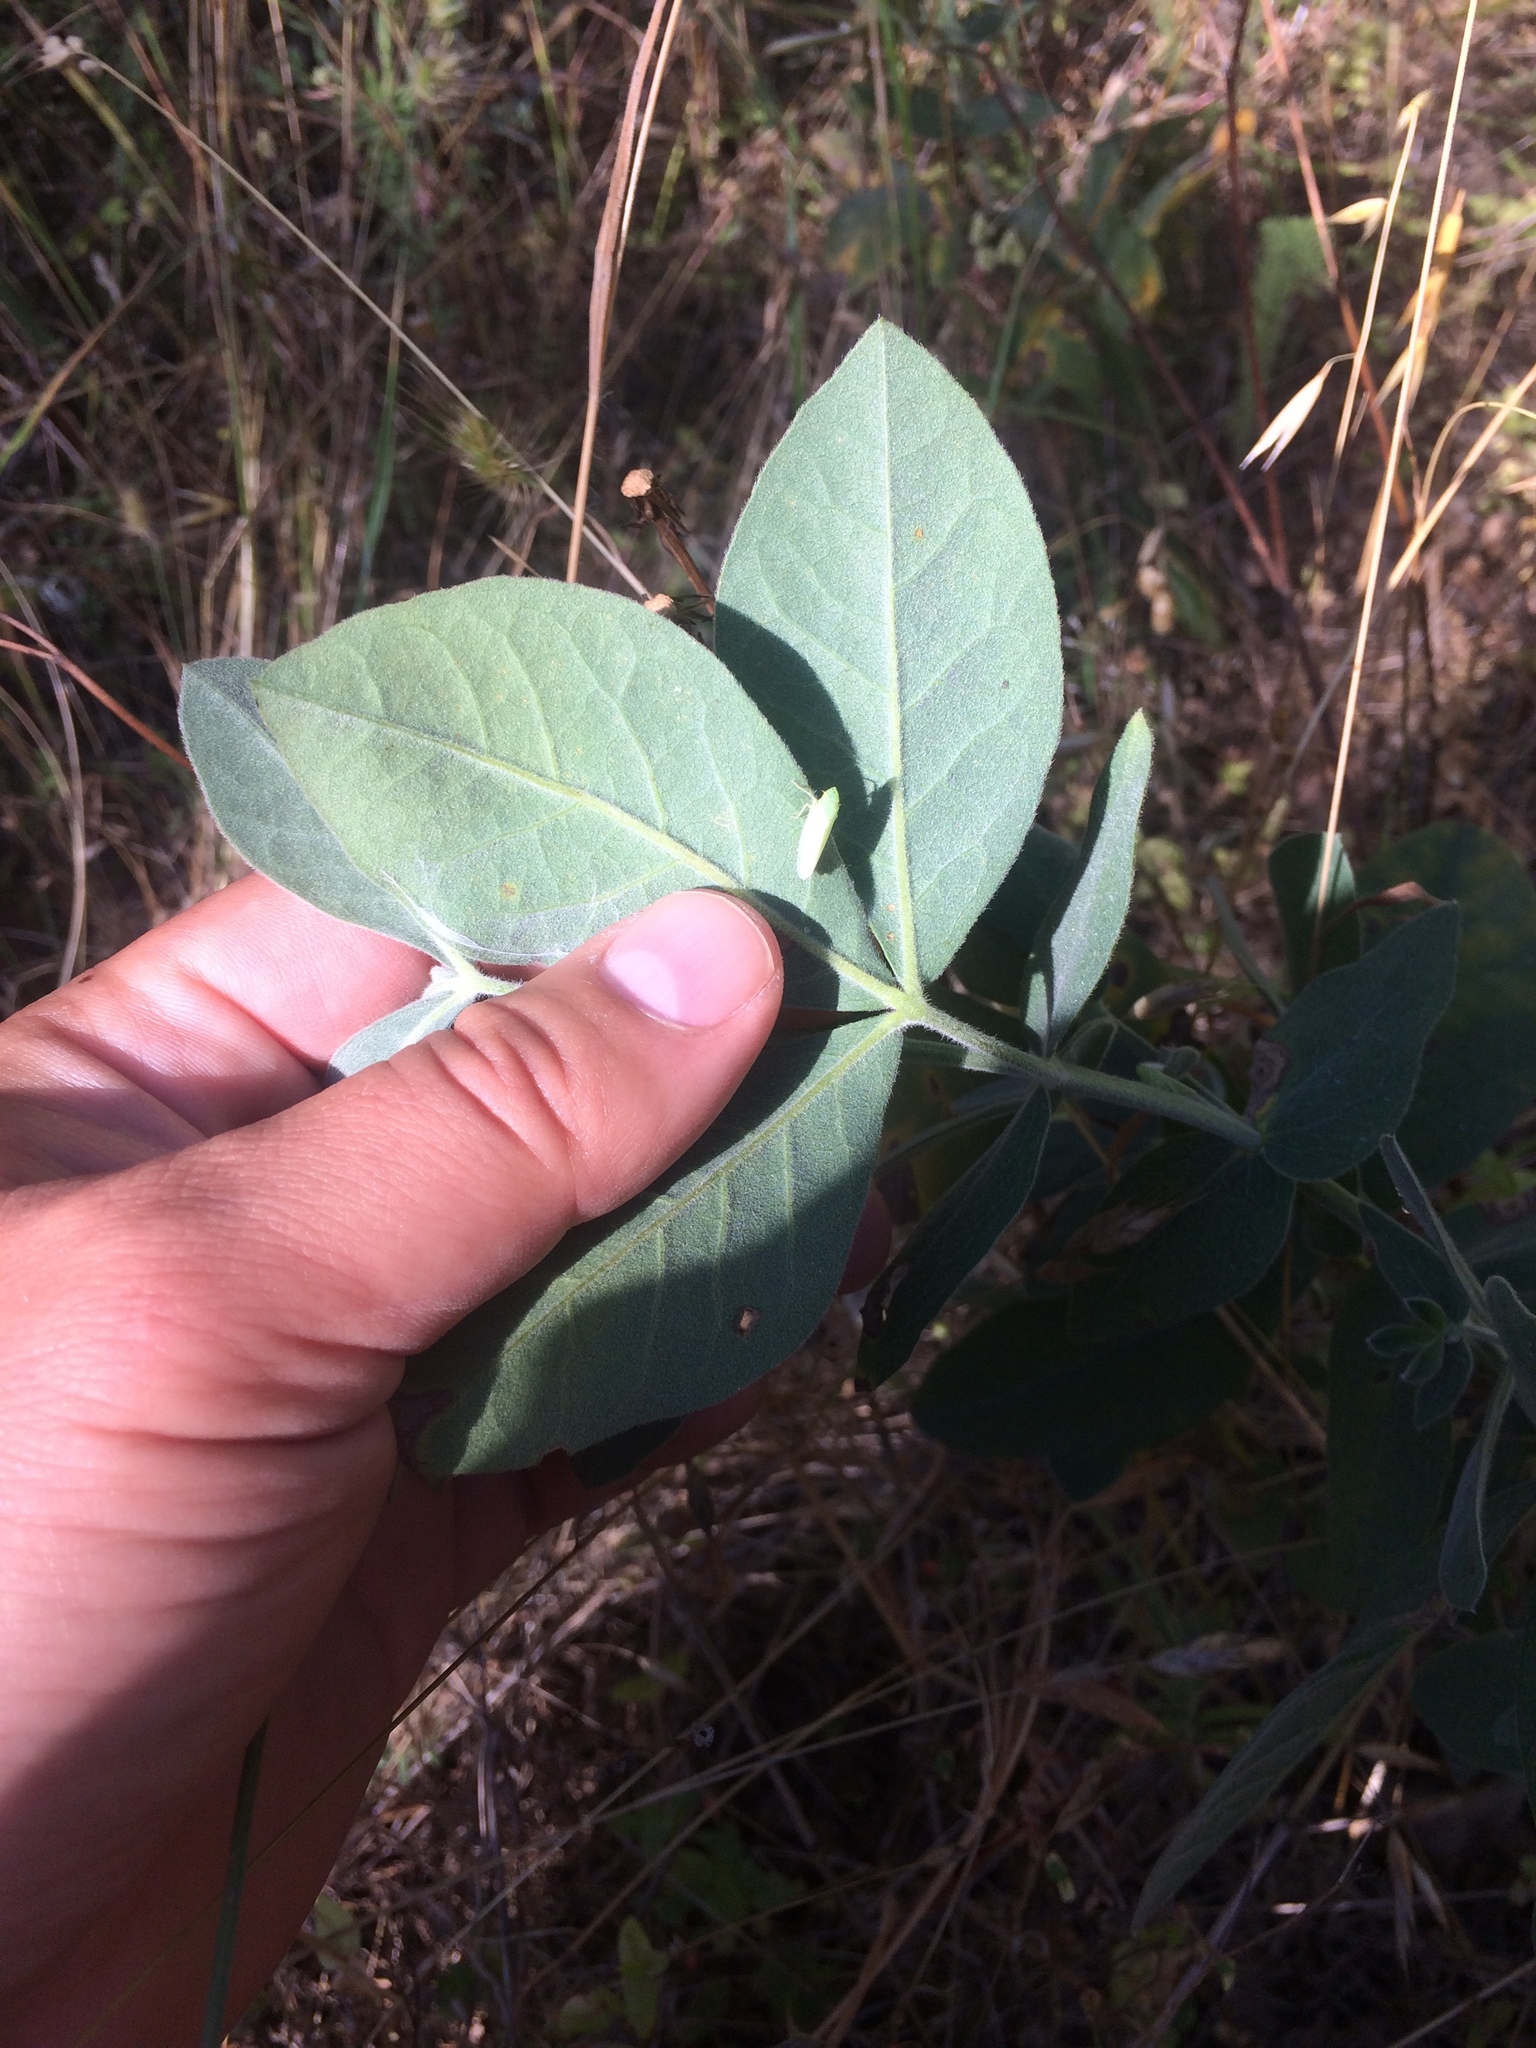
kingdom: Plantae
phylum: Tracheophyta
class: Magnoliopsida
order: Fabales
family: Fabaceae
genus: Thermopsis
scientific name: Thermopsis californica
